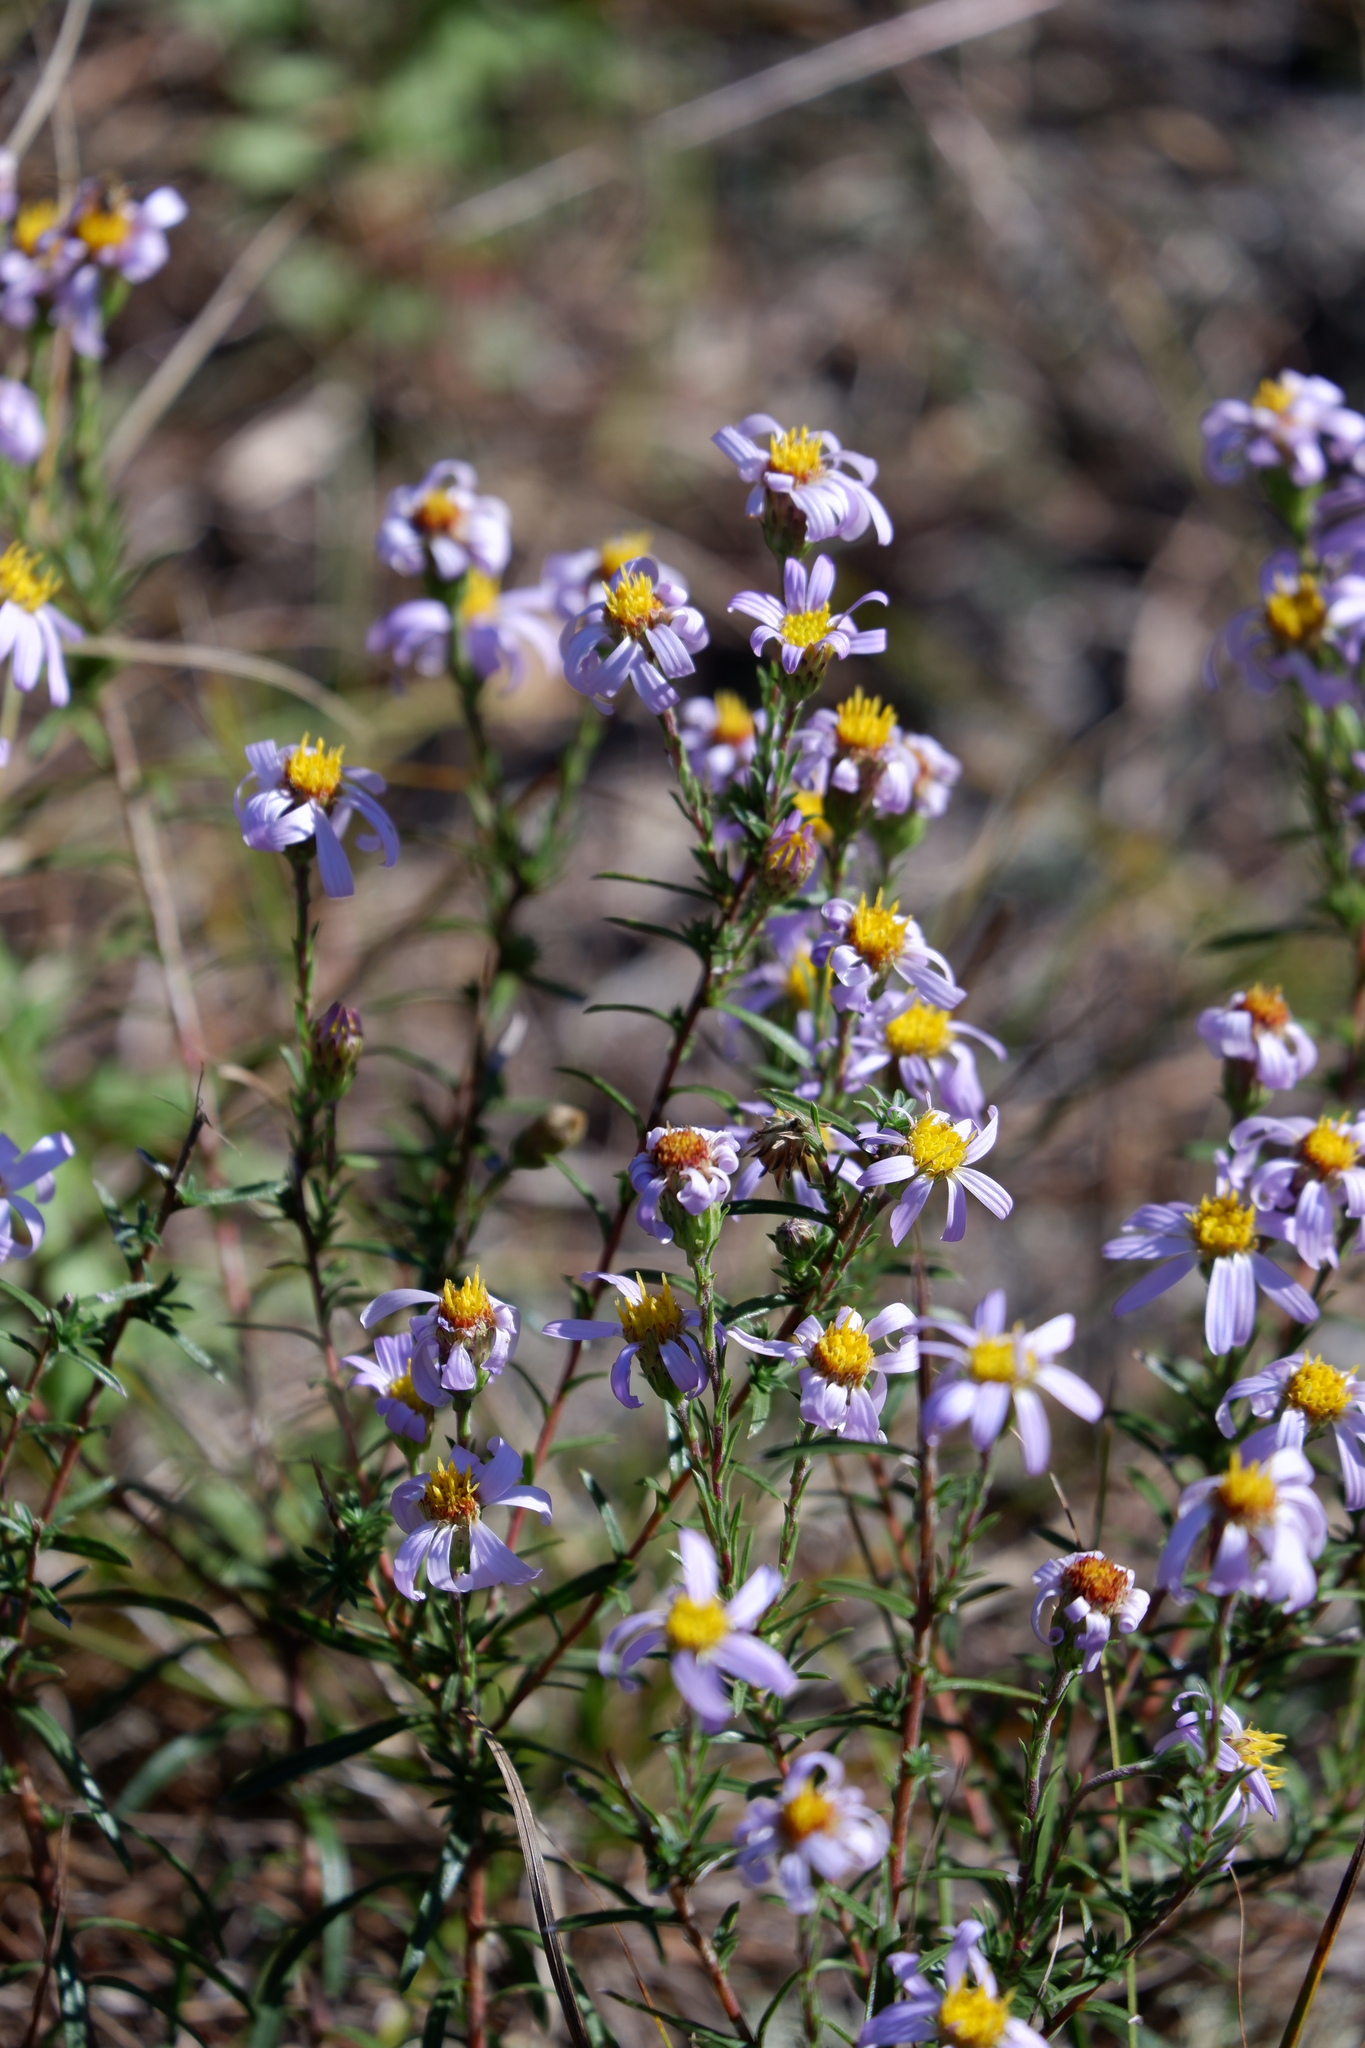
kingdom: Plantae
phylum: Tracheophyta
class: Magnoliopsida
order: Asterales
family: Asteraceae
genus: Ionactis
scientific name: Ionactis linariifolia
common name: Flax-leaf aster
